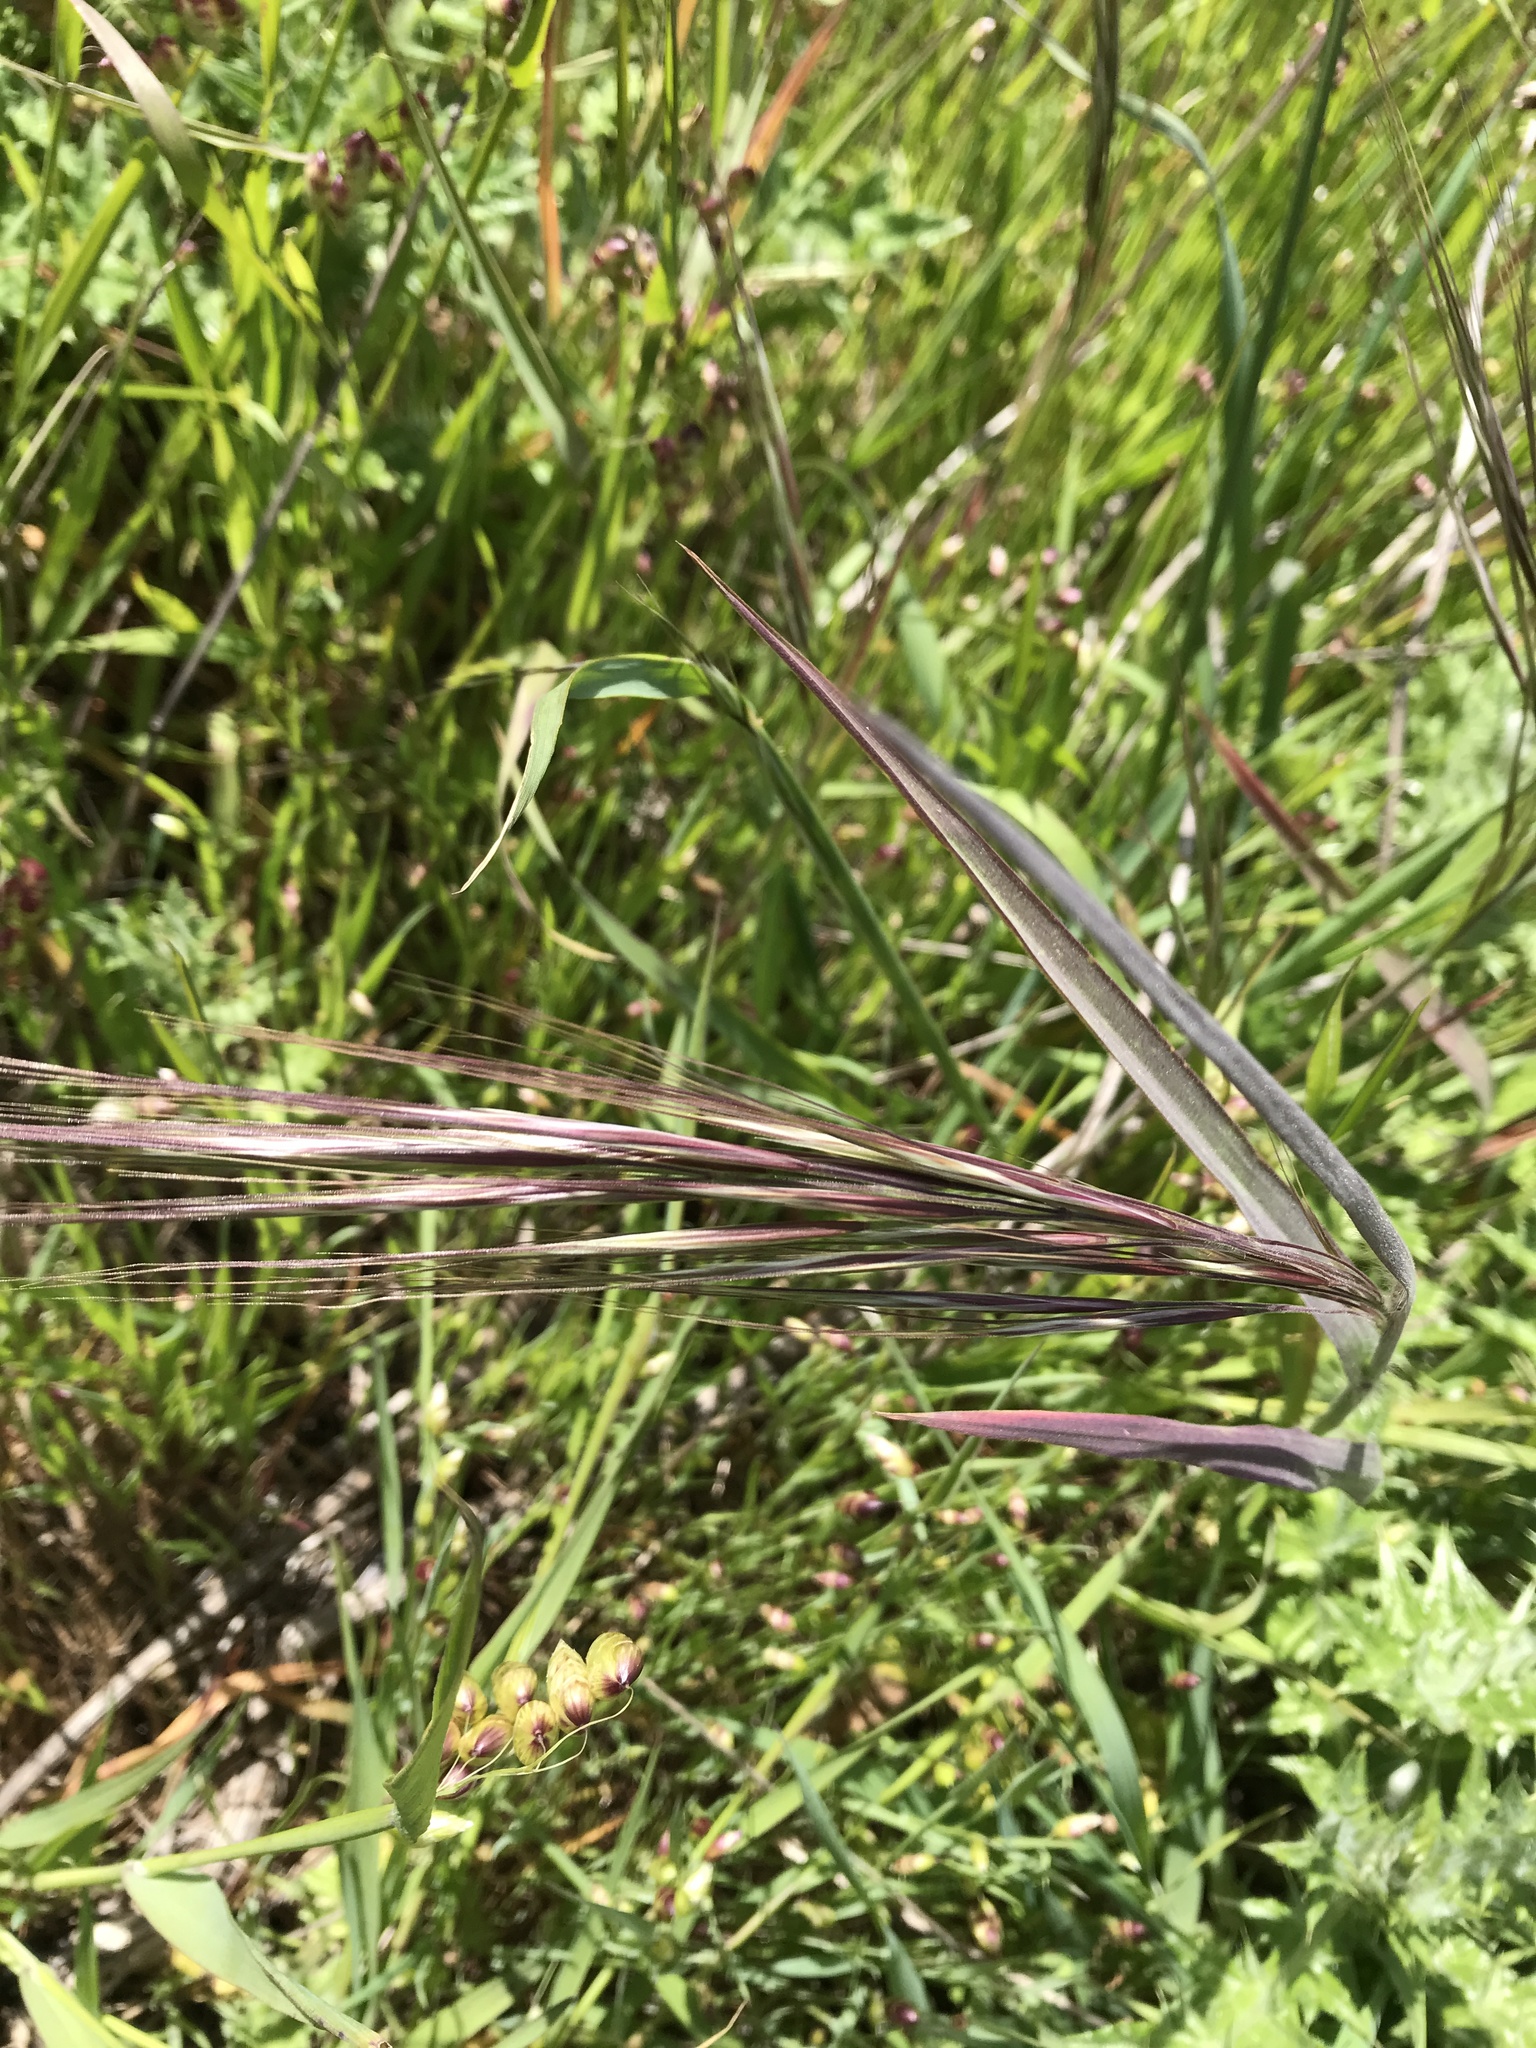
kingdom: Plantae
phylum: Tracheophyta
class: Liliopsida
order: Poales
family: Poaceae
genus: Bromus
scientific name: Bromus diandrus
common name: Ripgut brome
